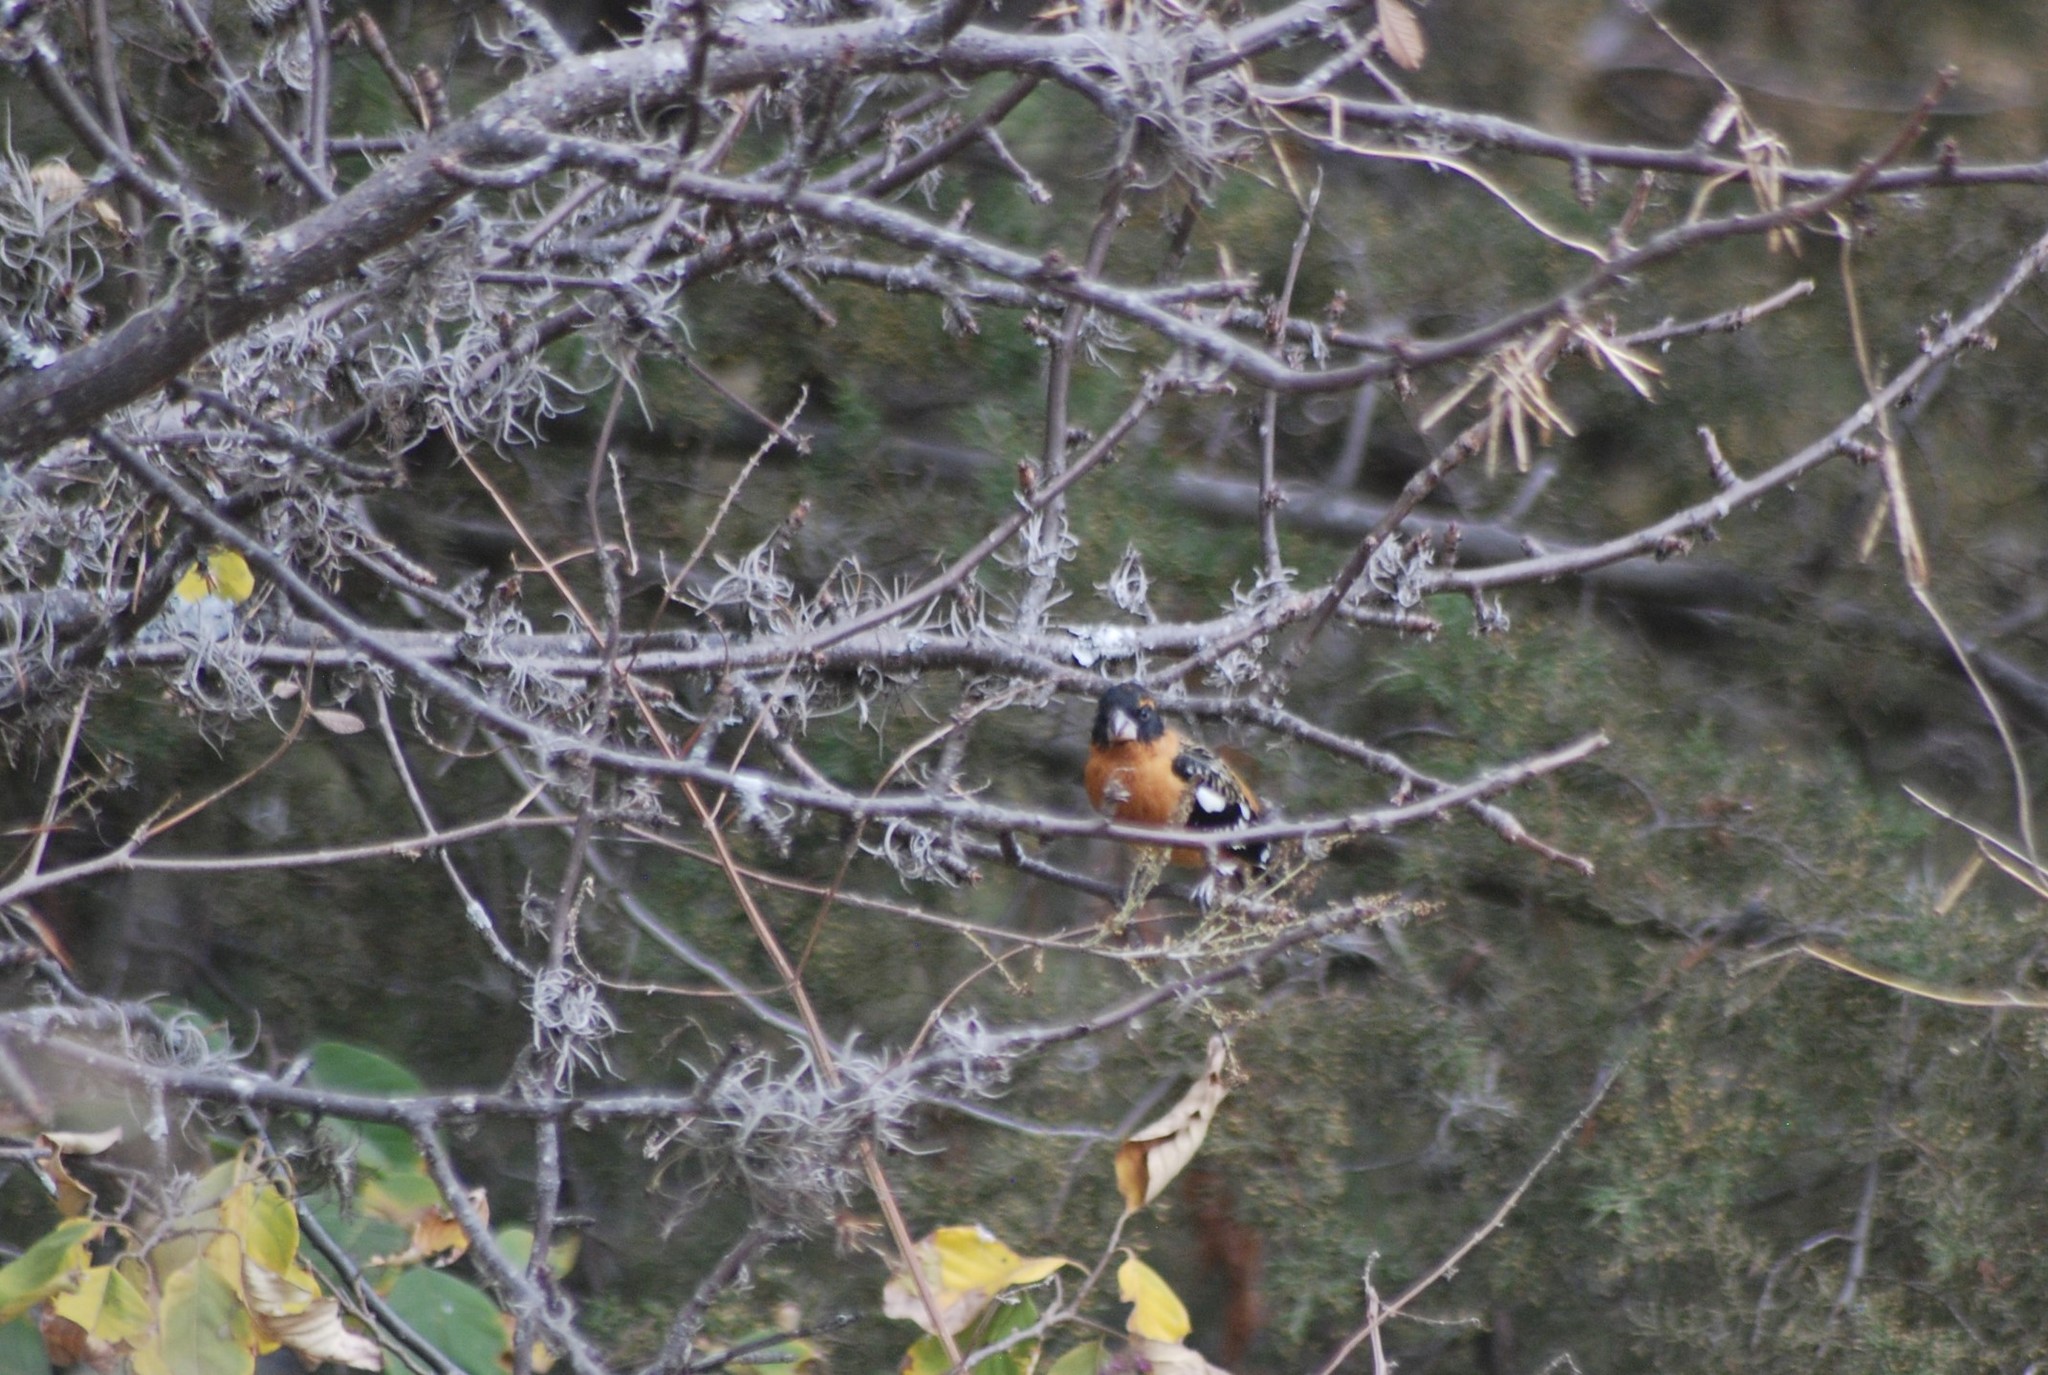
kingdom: Animalia
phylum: Chordata
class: Aves
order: Passeriformes
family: Cardinalidae
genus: Pheucticus
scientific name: Pheucticus melanocephalus
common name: Black-headed grosbeak
